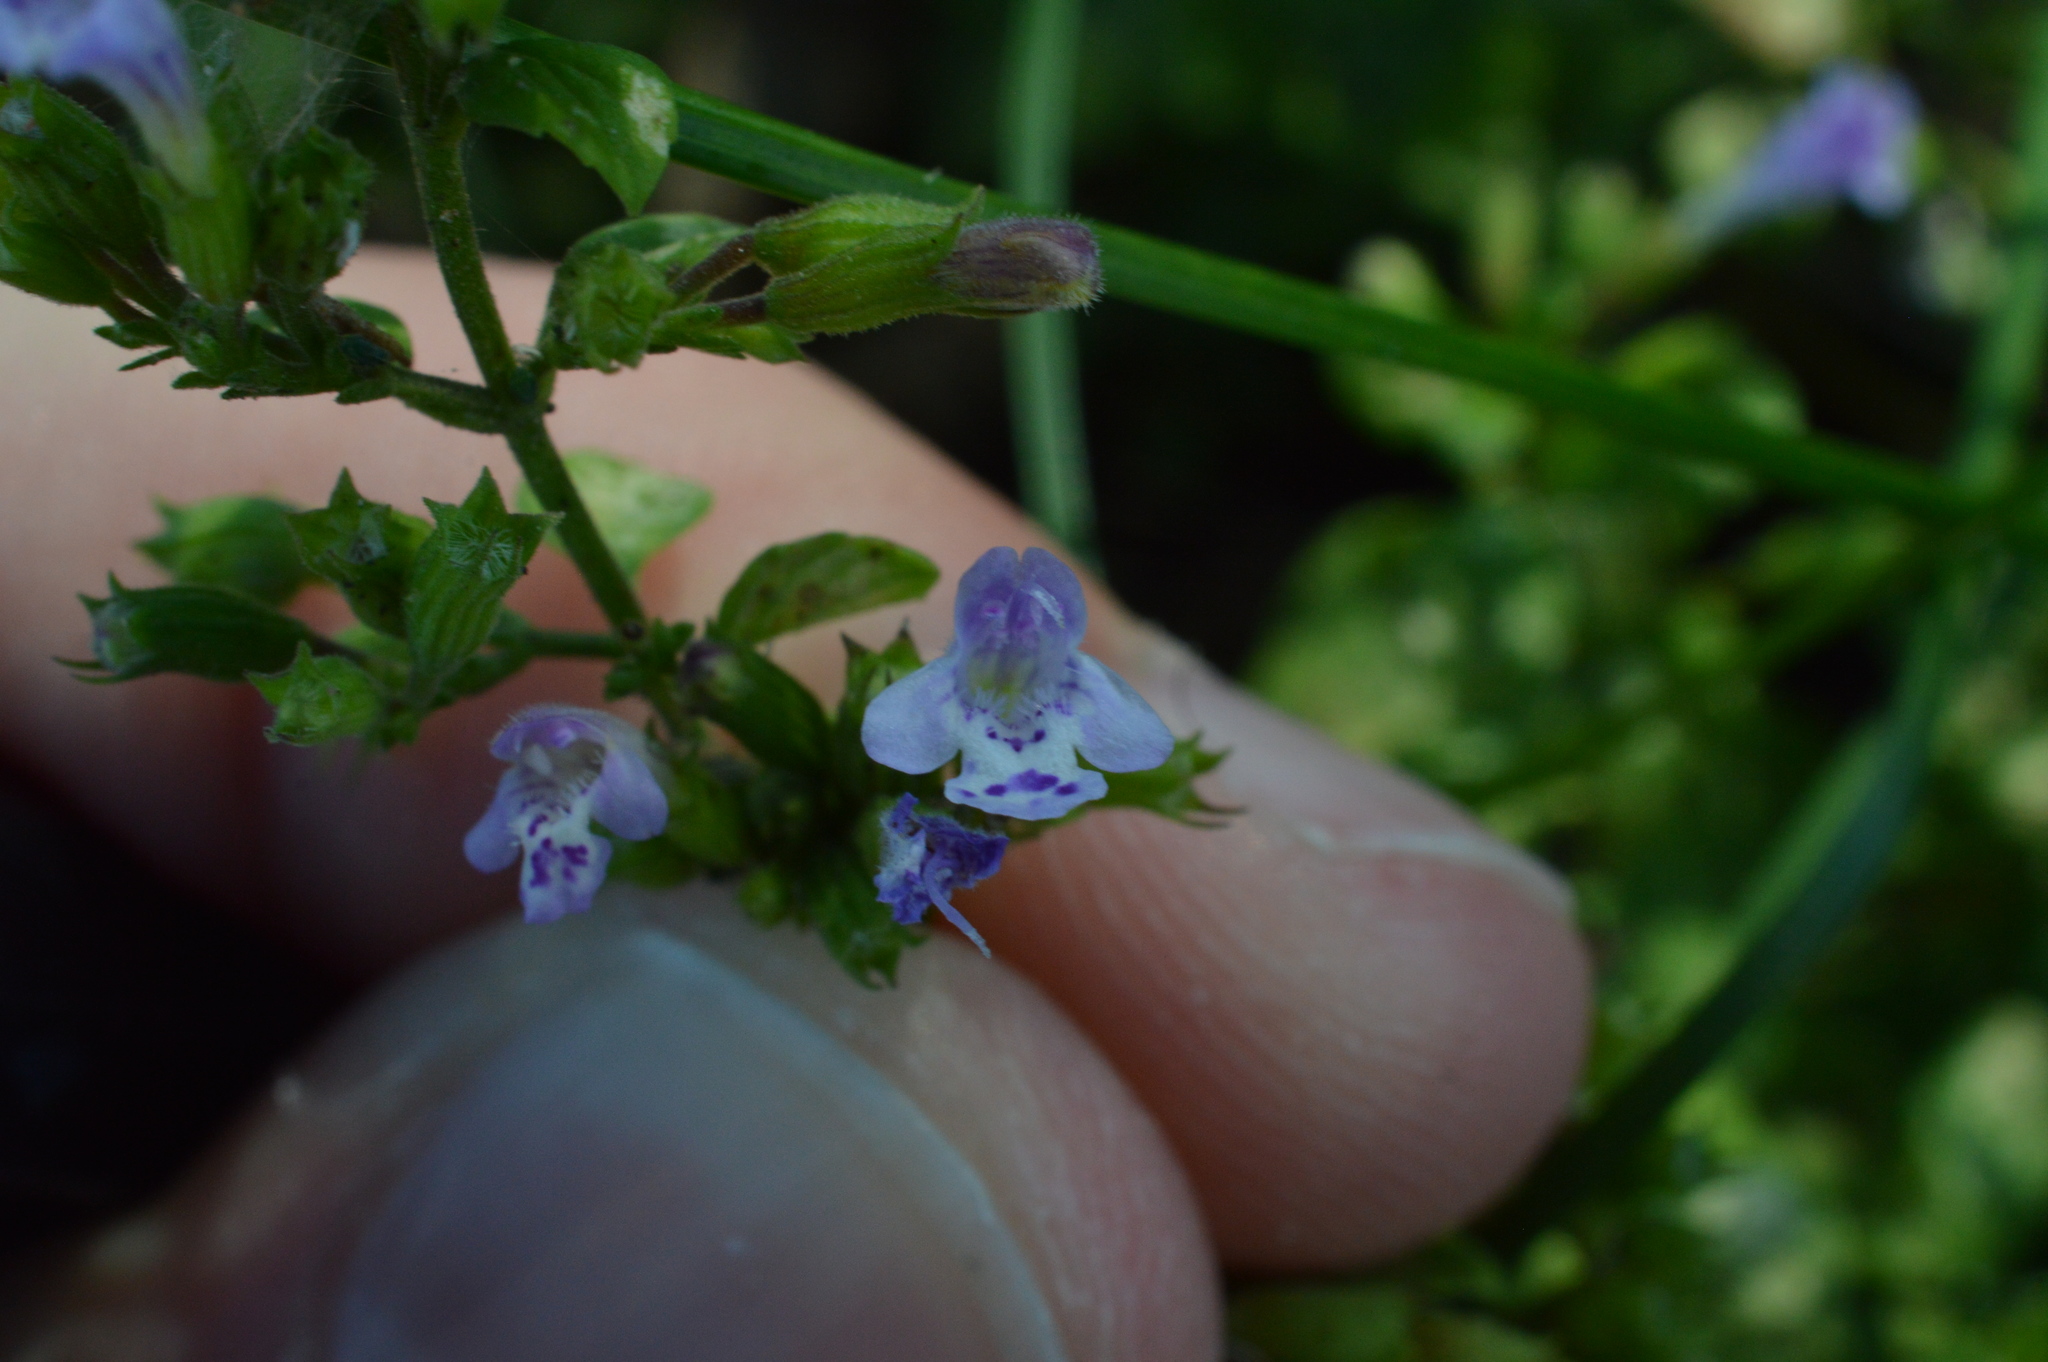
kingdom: Plantae
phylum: Tracheophyta
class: Magnoliopsida
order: Lamiales
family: Lamiaceae
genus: Clinopodium
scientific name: Clinopodium nepeta
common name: Lesser calamint
